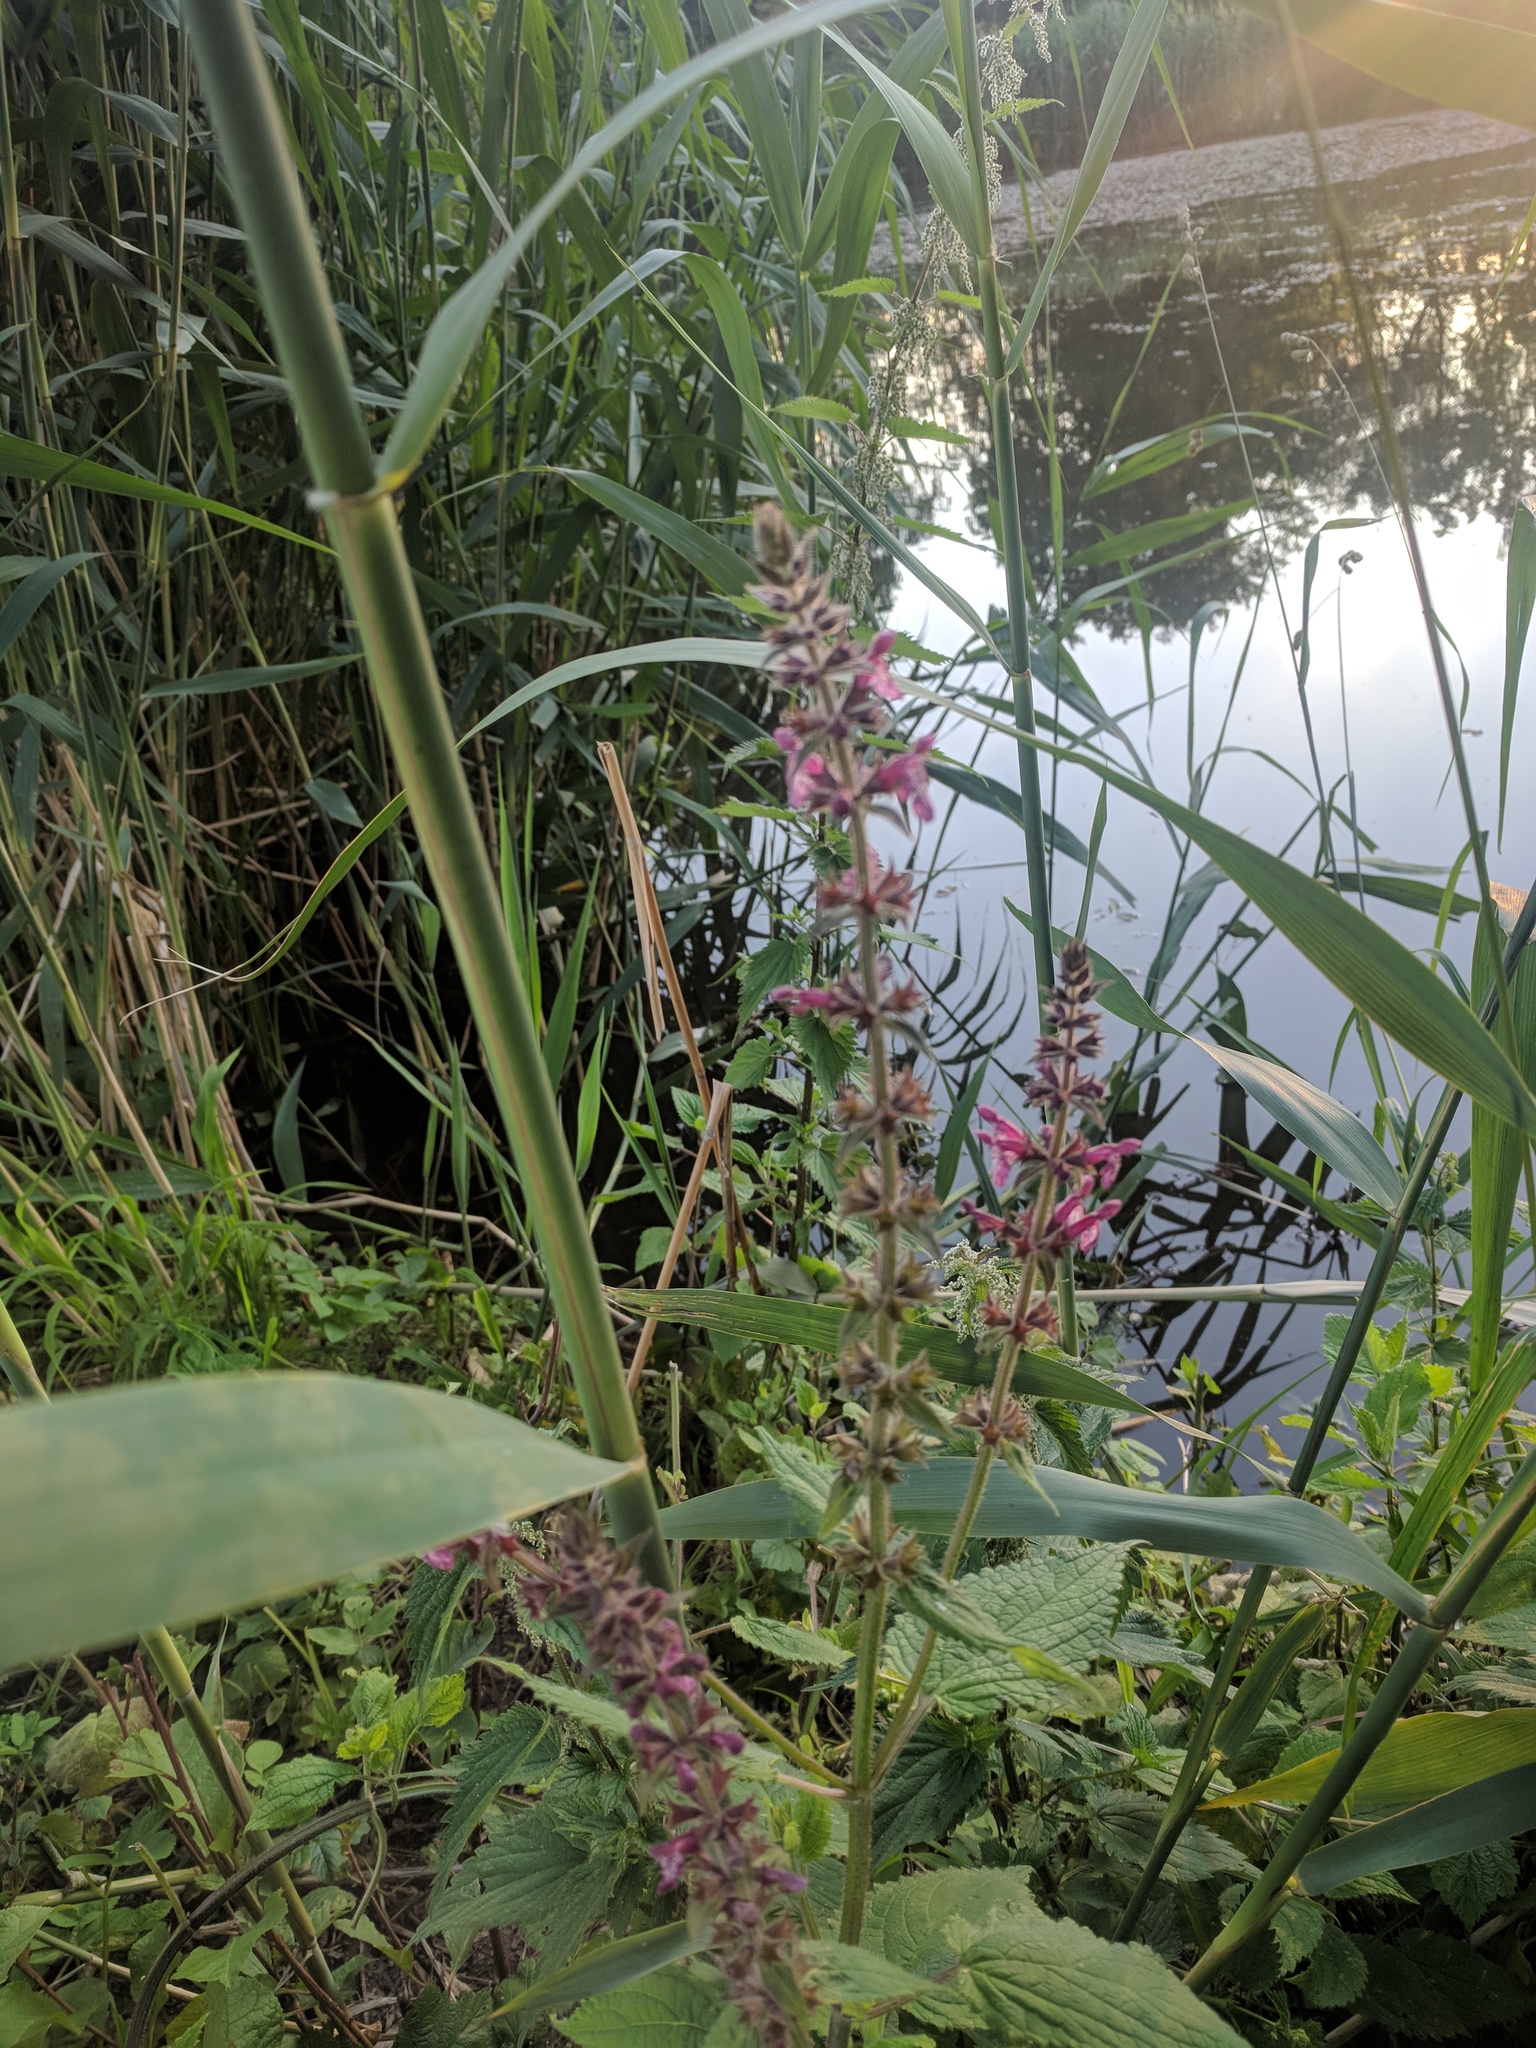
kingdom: Plantae
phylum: Tracheophyta
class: Magnoliopsida
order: Lamiales
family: Lamiaceae
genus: Stachys
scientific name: Stachys sylvatica
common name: Hedge woundwort
